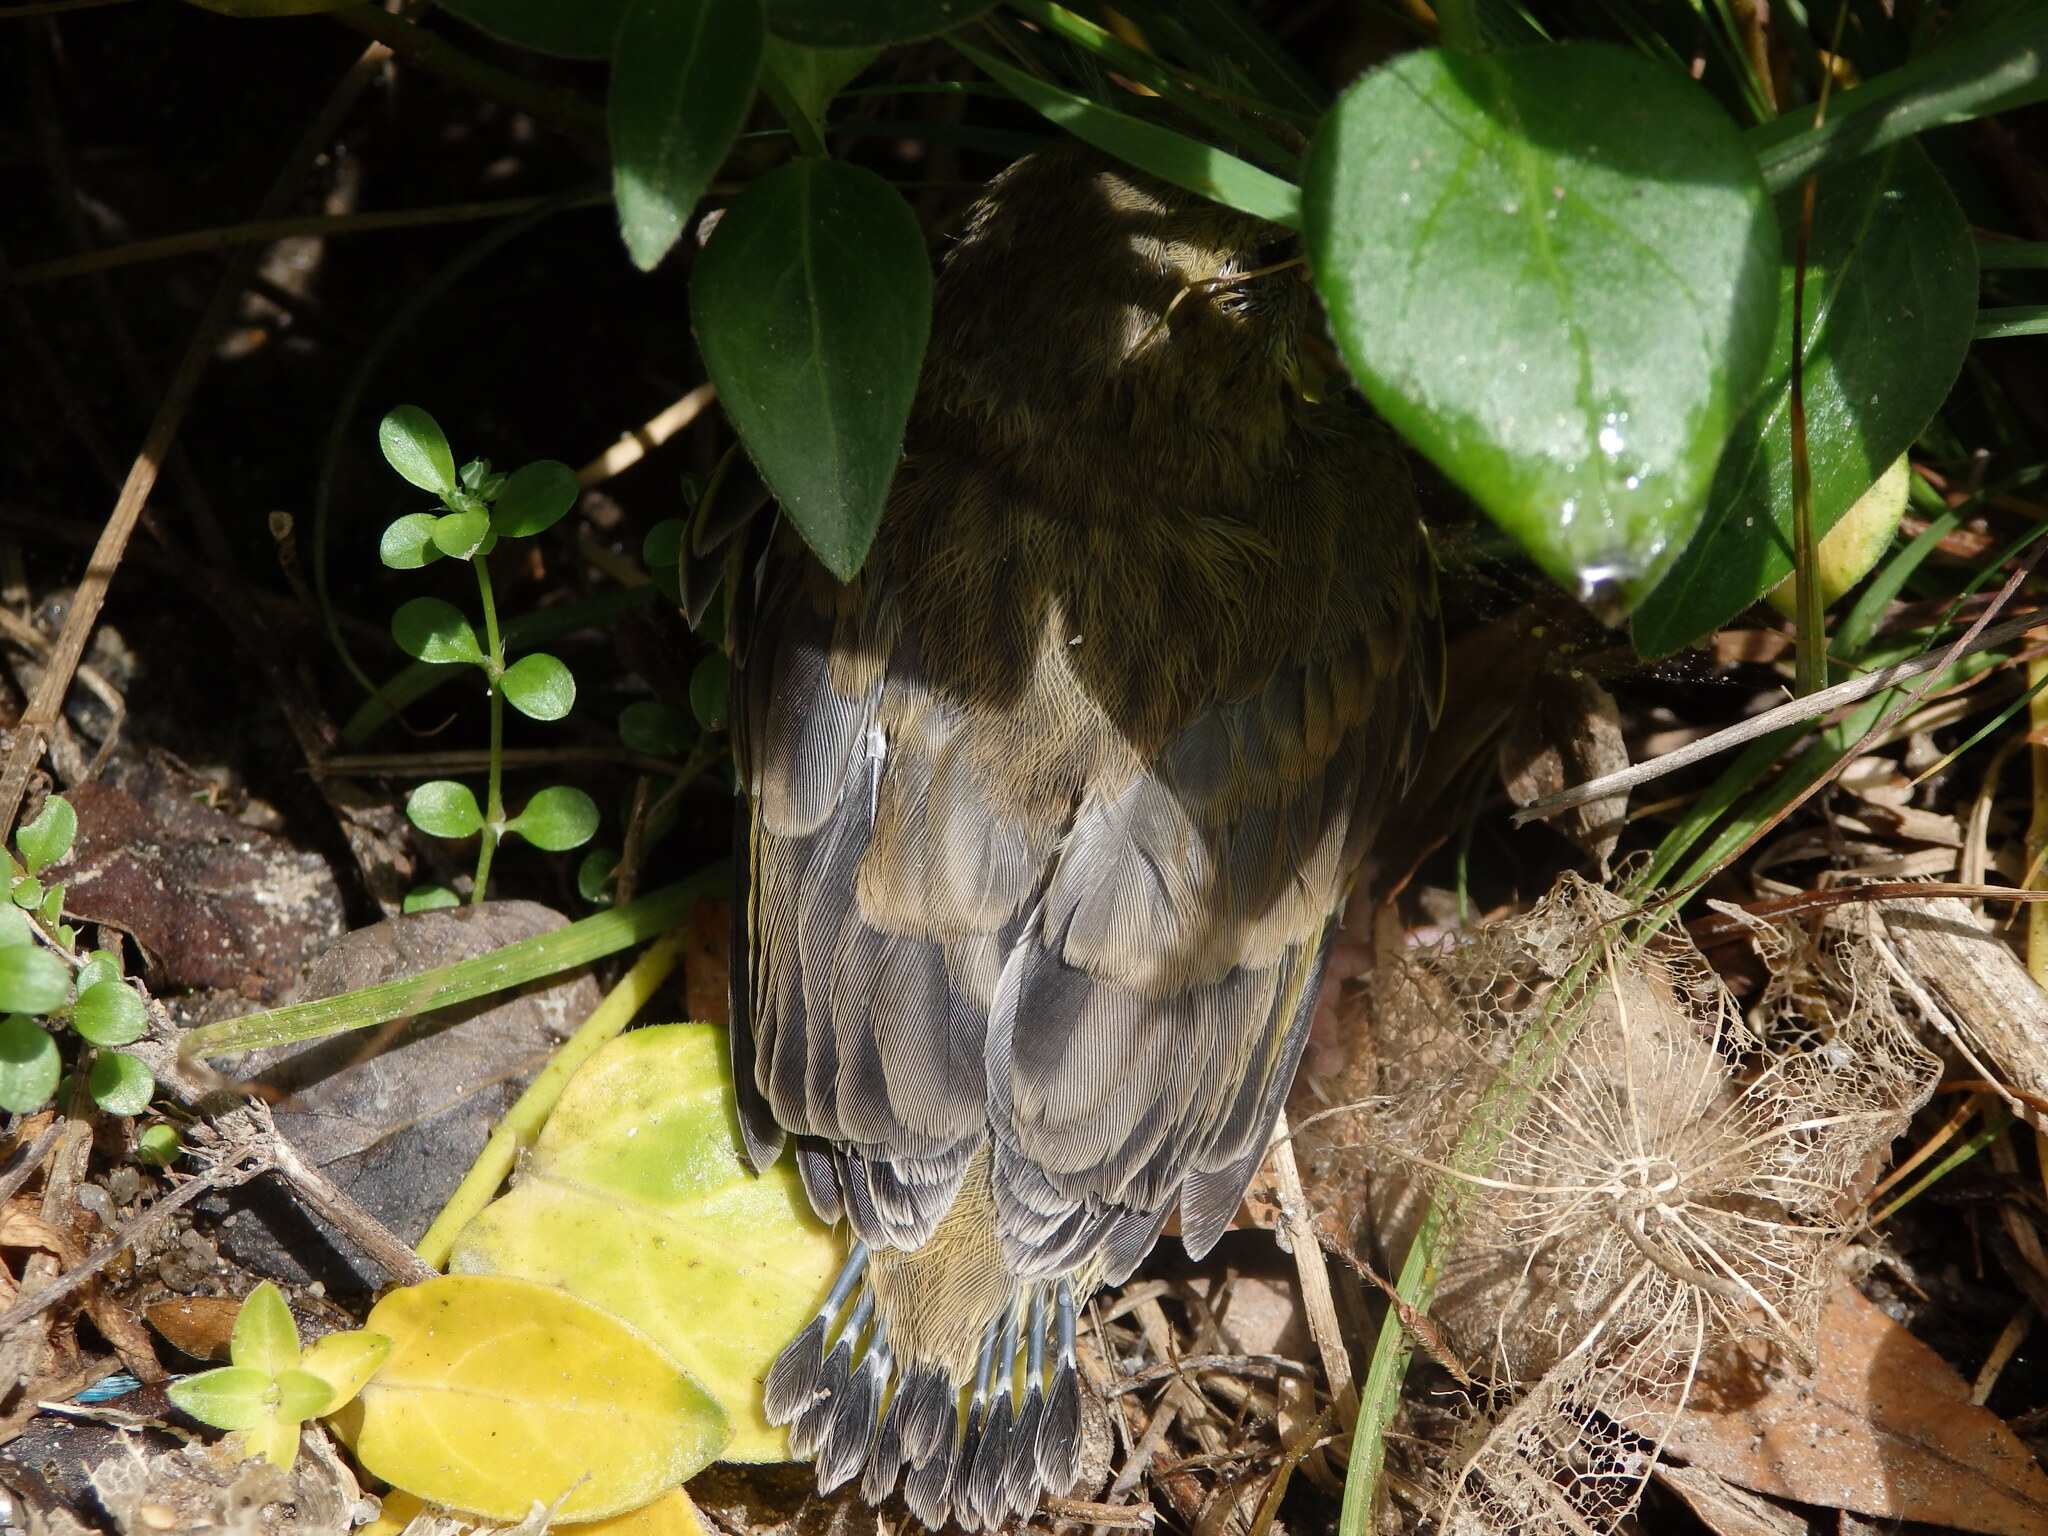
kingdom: Plantae
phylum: Tracheophyta
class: Liliopsida
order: Poales
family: Poaceae
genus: Chloris
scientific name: Chloris chloris
